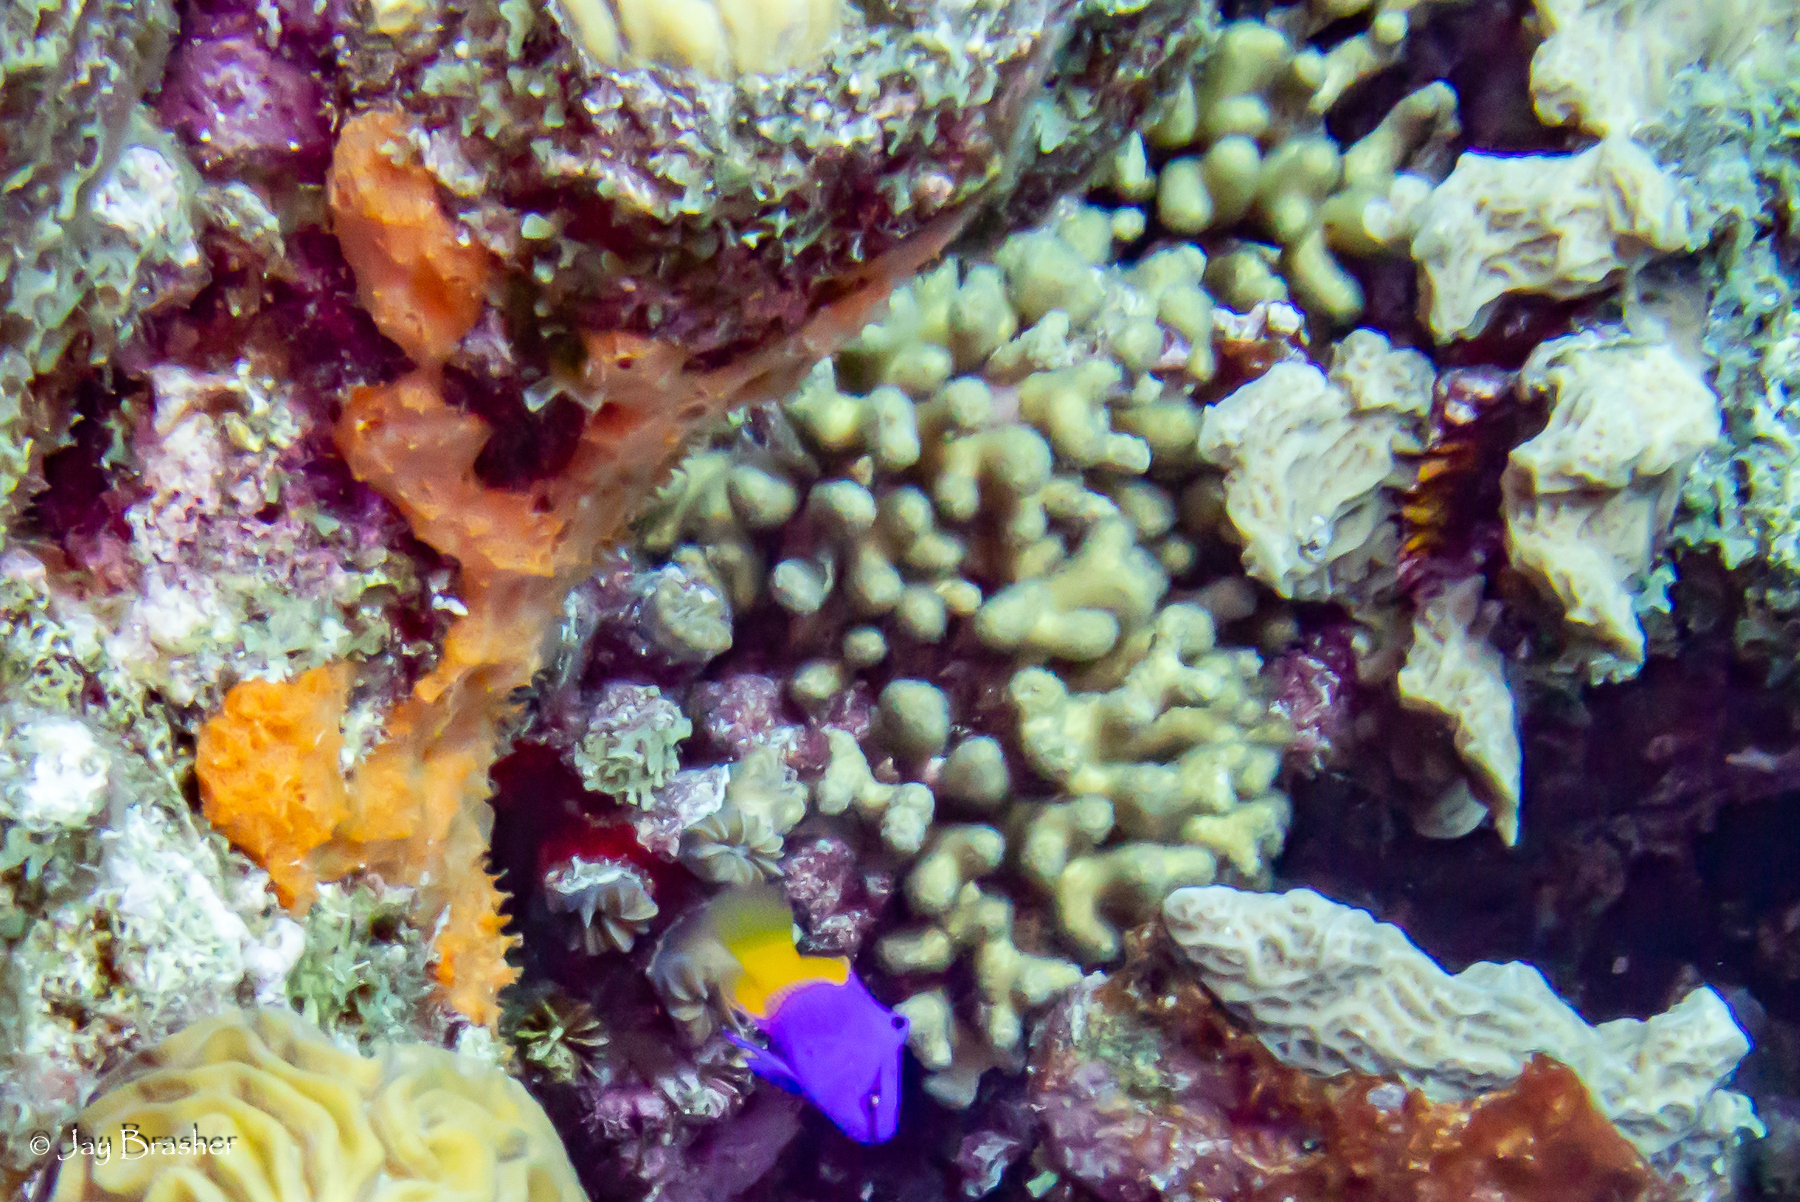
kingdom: Animalia
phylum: Chordata
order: Perciformes
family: Grammatidae
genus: Gramma
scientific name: Gramma loreto
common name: Fairy basslet
